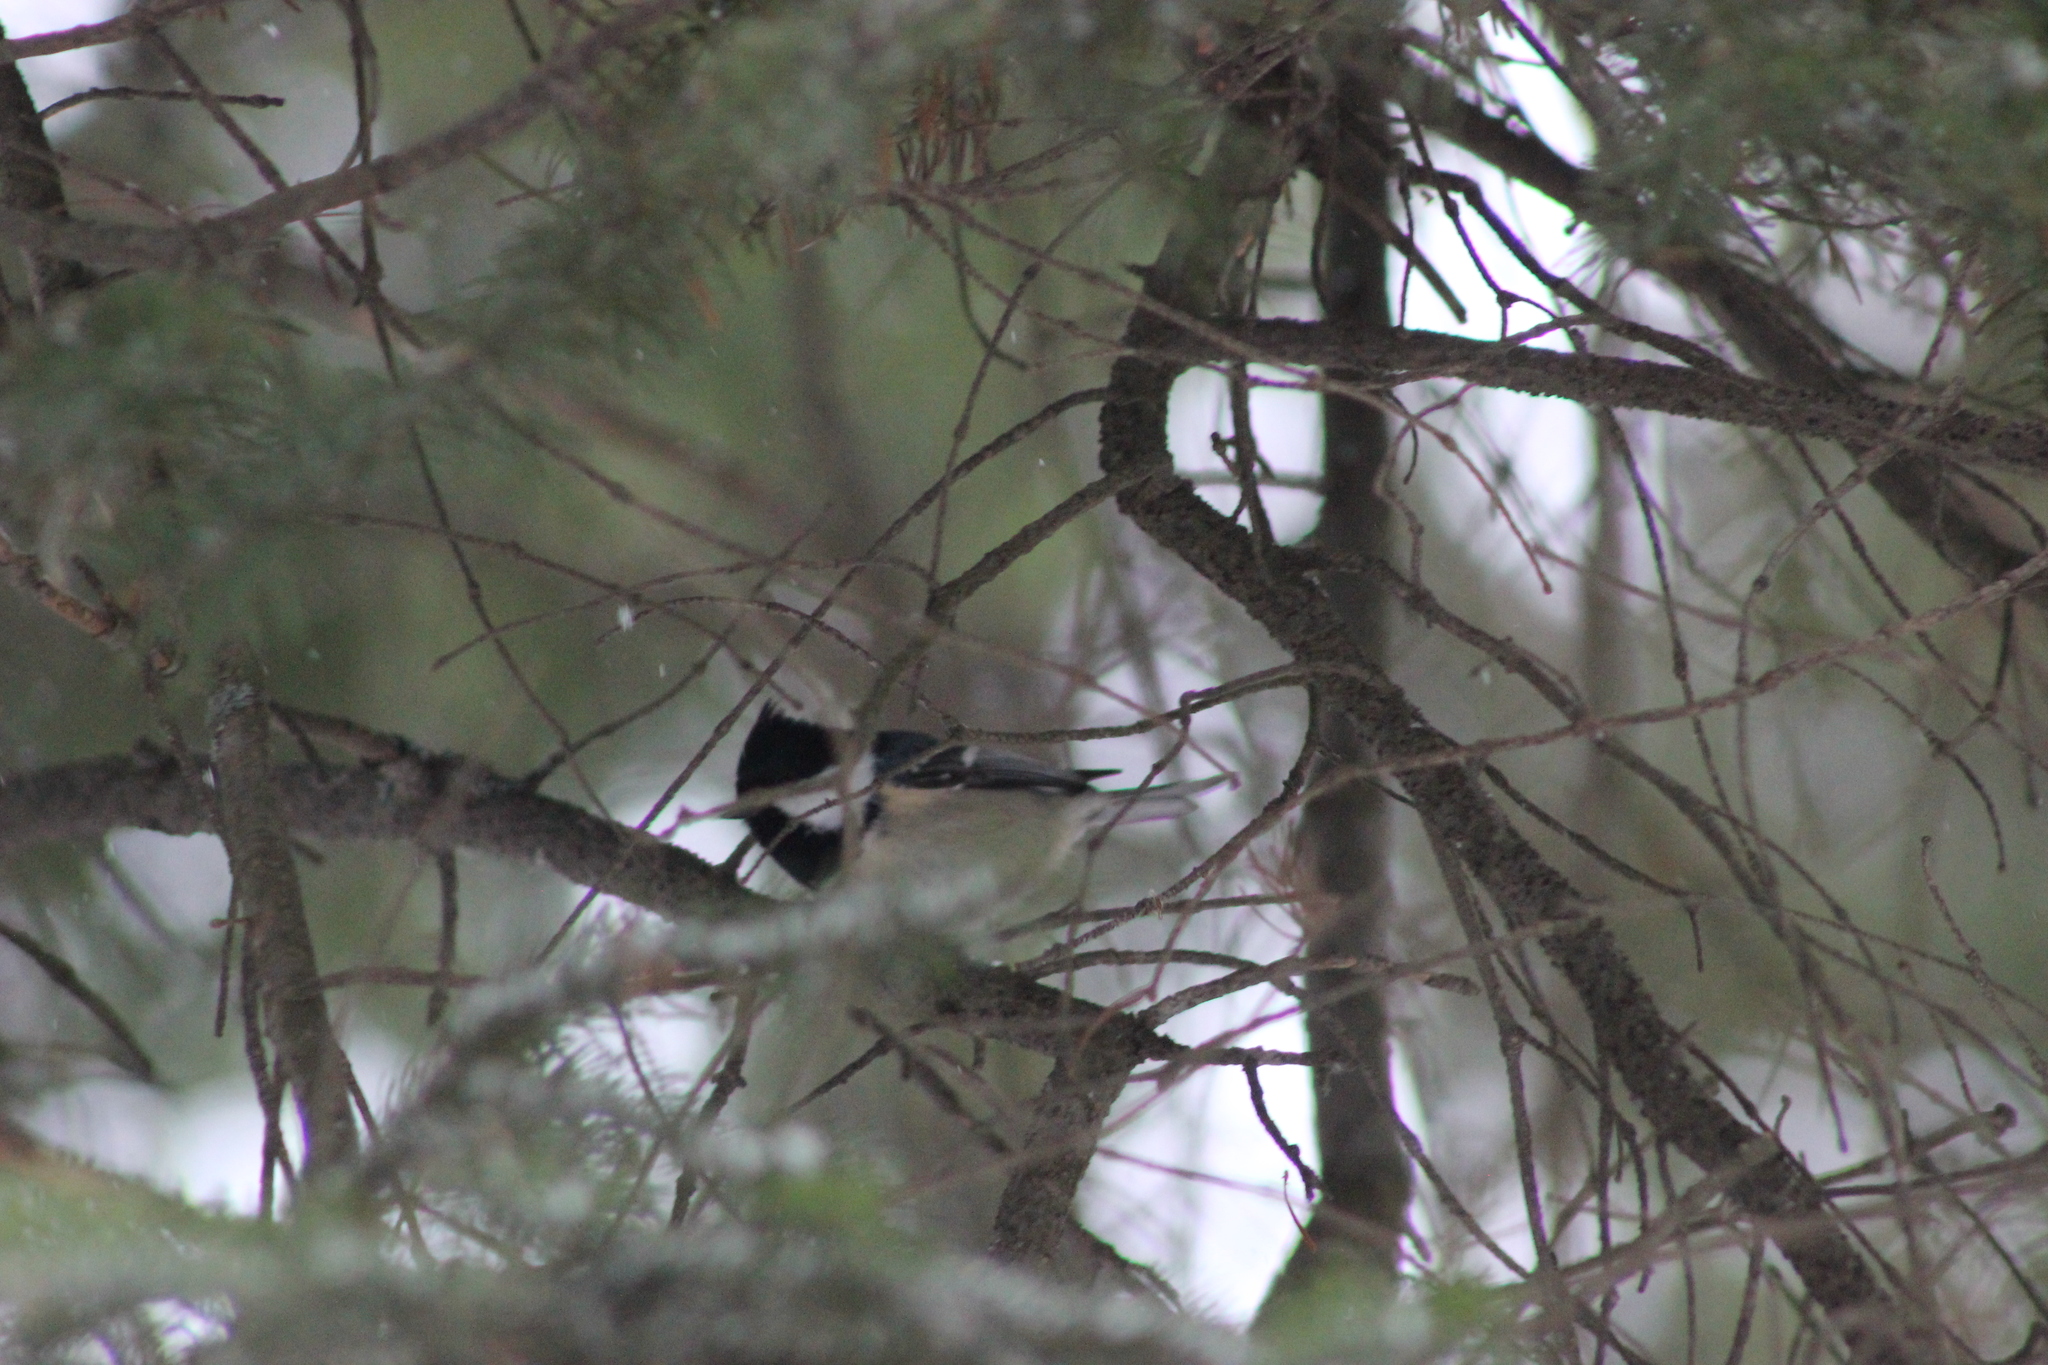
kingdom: Animalia
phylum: Chordata
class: Aves
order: Passeriformes
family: Paridae
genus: Periparus
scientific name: Periparus ater
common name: Coal tit
